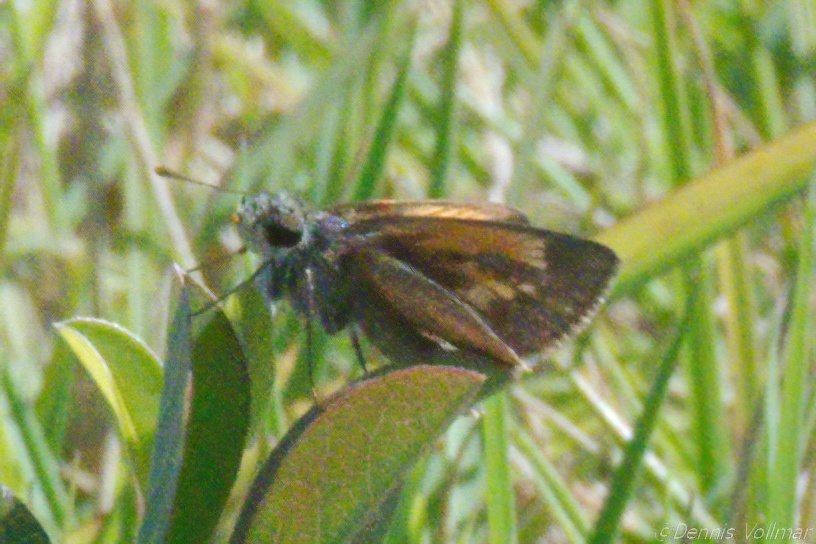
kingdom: Animalia
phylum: Arthropoda
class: Insecta
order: Lepidoptera
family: Hesperiidae
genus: Polites
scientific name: Polites baracoa
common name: Baracoa skipper
